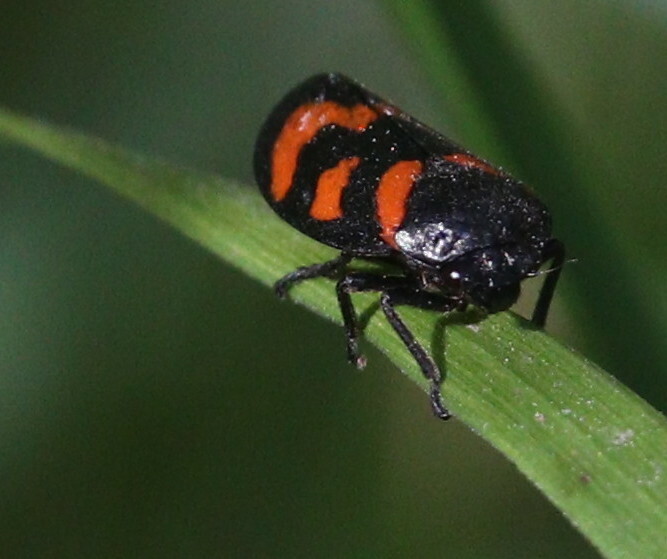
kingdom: Animalia
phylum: Arthropoda
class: Insecta
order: Hemiptera
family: Cercopidae
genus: Cercopis
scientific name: Cercopis vulnerata
